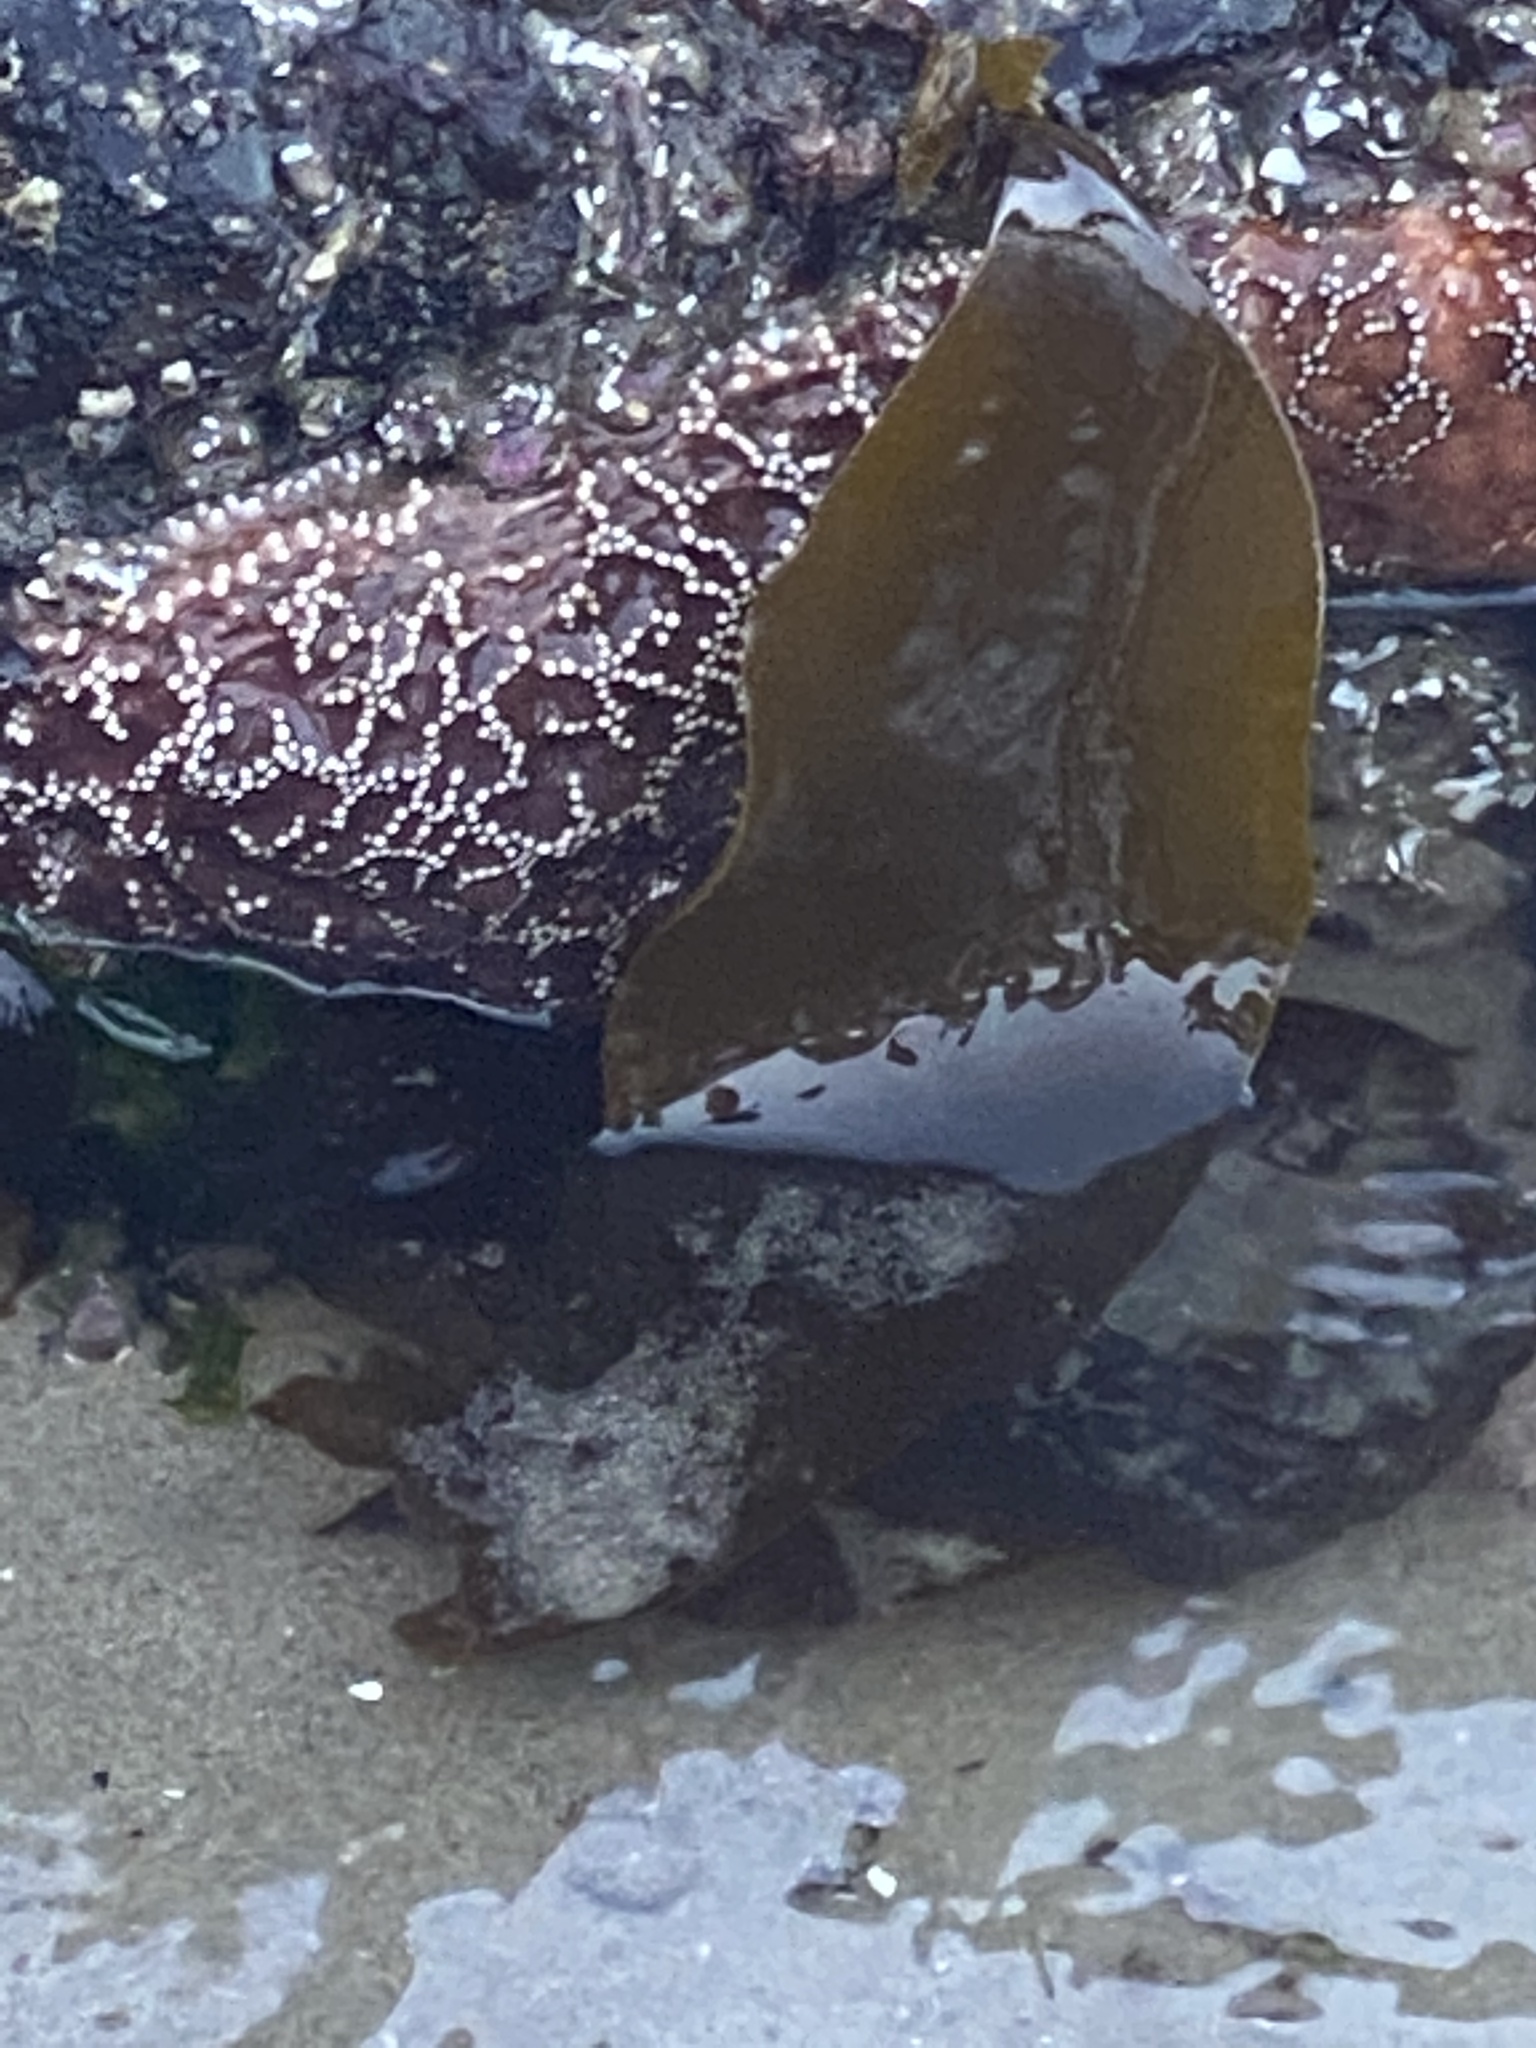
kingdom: Animalia
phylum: Echinodermata
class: Asteroidea
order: Forcipulatida
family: Asteriidae
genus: Pisaster
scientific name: Pisaster ochraceus
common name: Ochre stars
